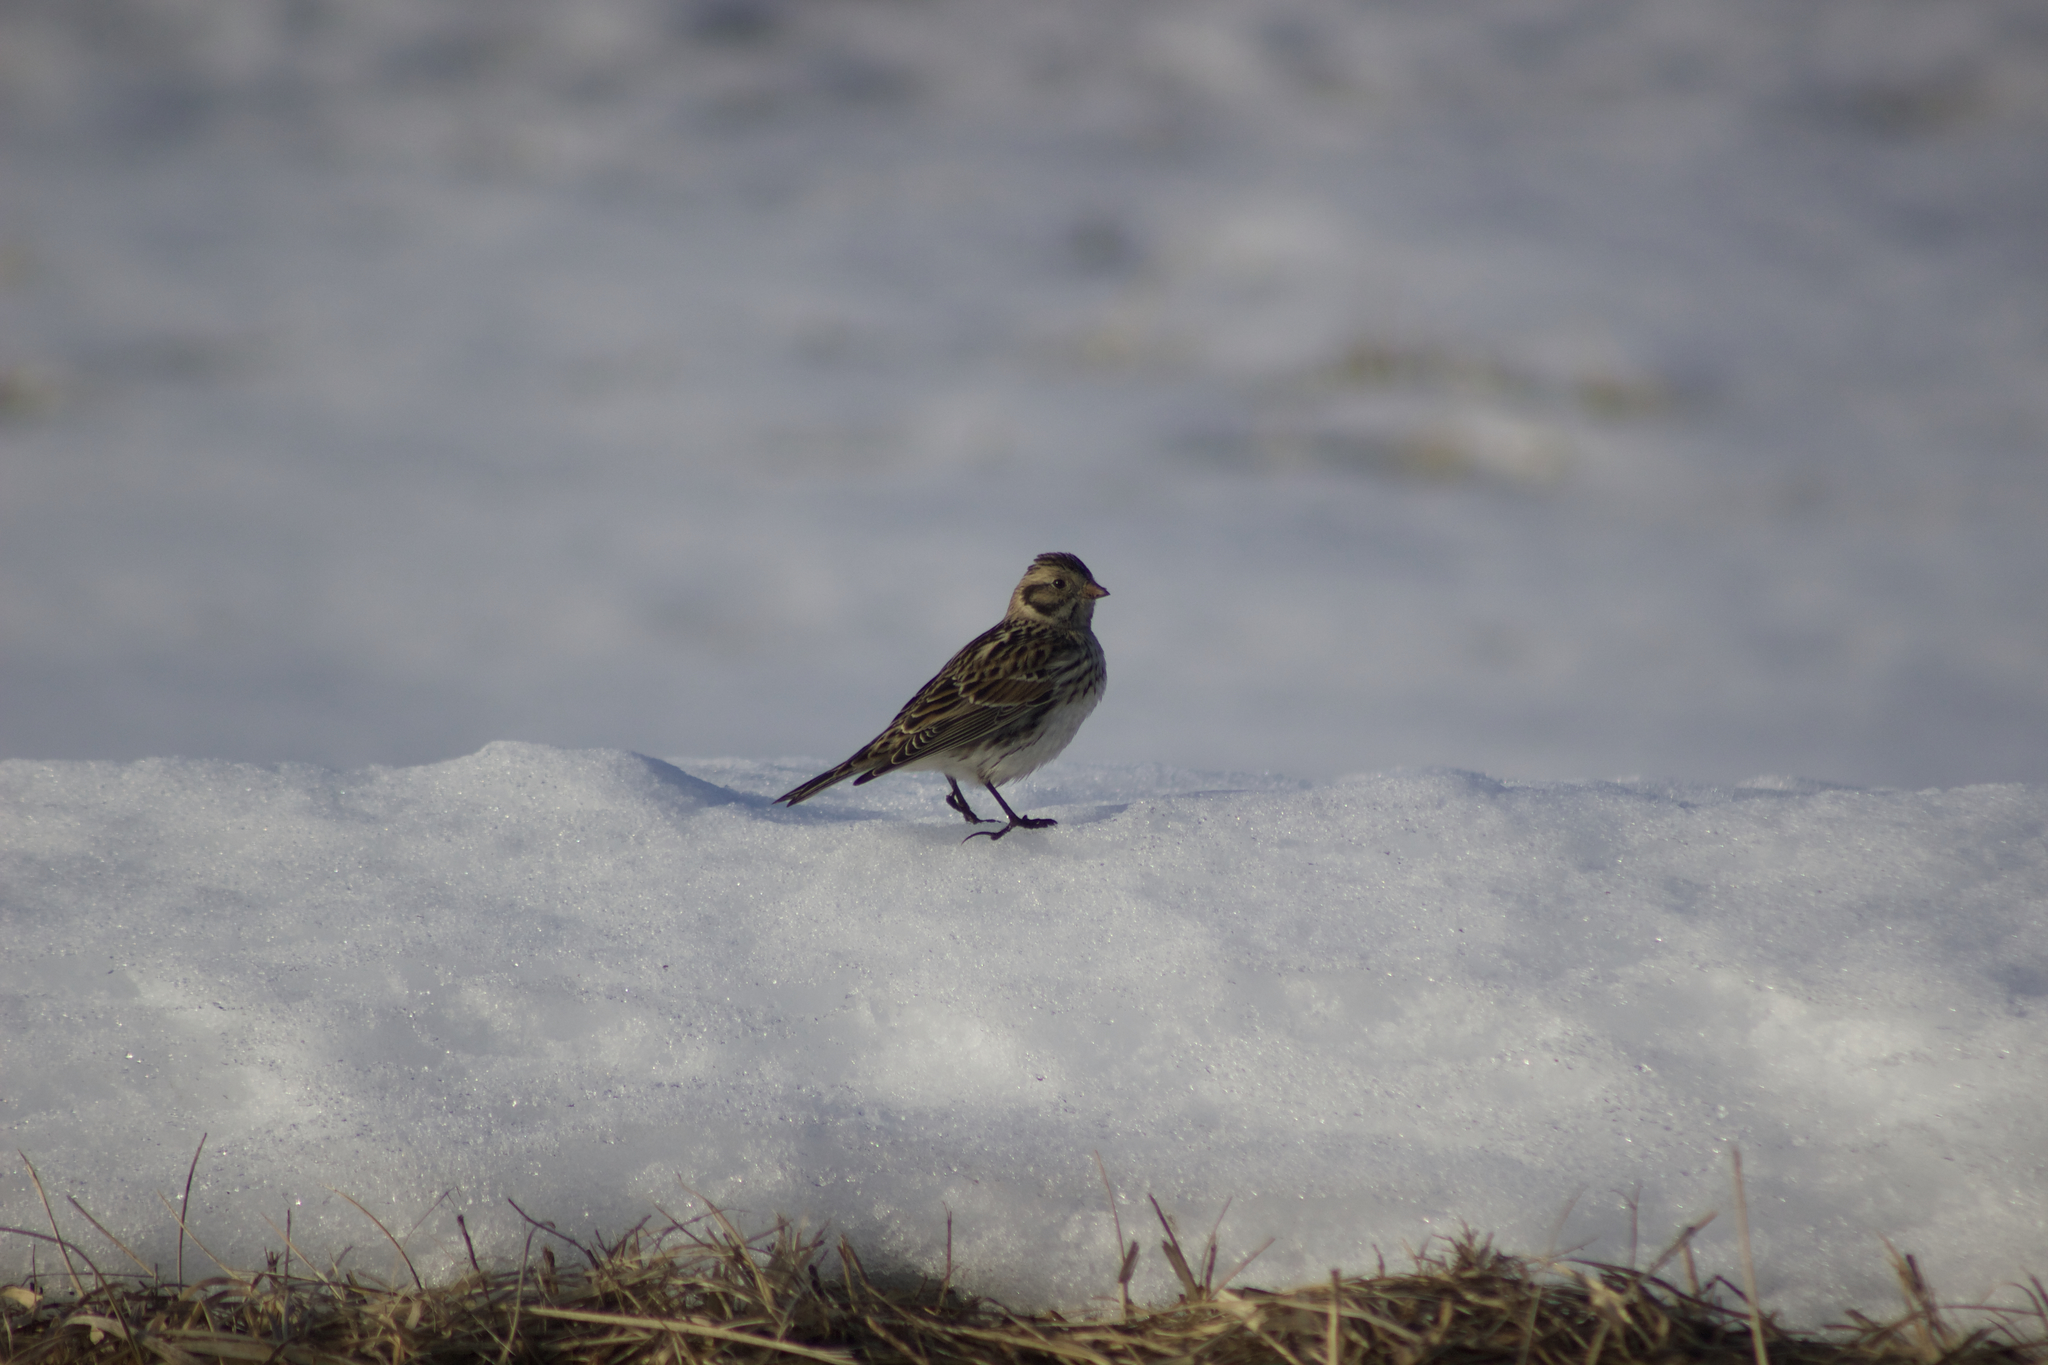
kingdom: Animalia
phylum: Chordata
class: Aves
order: Passeriformes
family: Calcariidae
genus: Calcarius
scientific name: Calcarius lapponicus
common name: Lapland longspur
